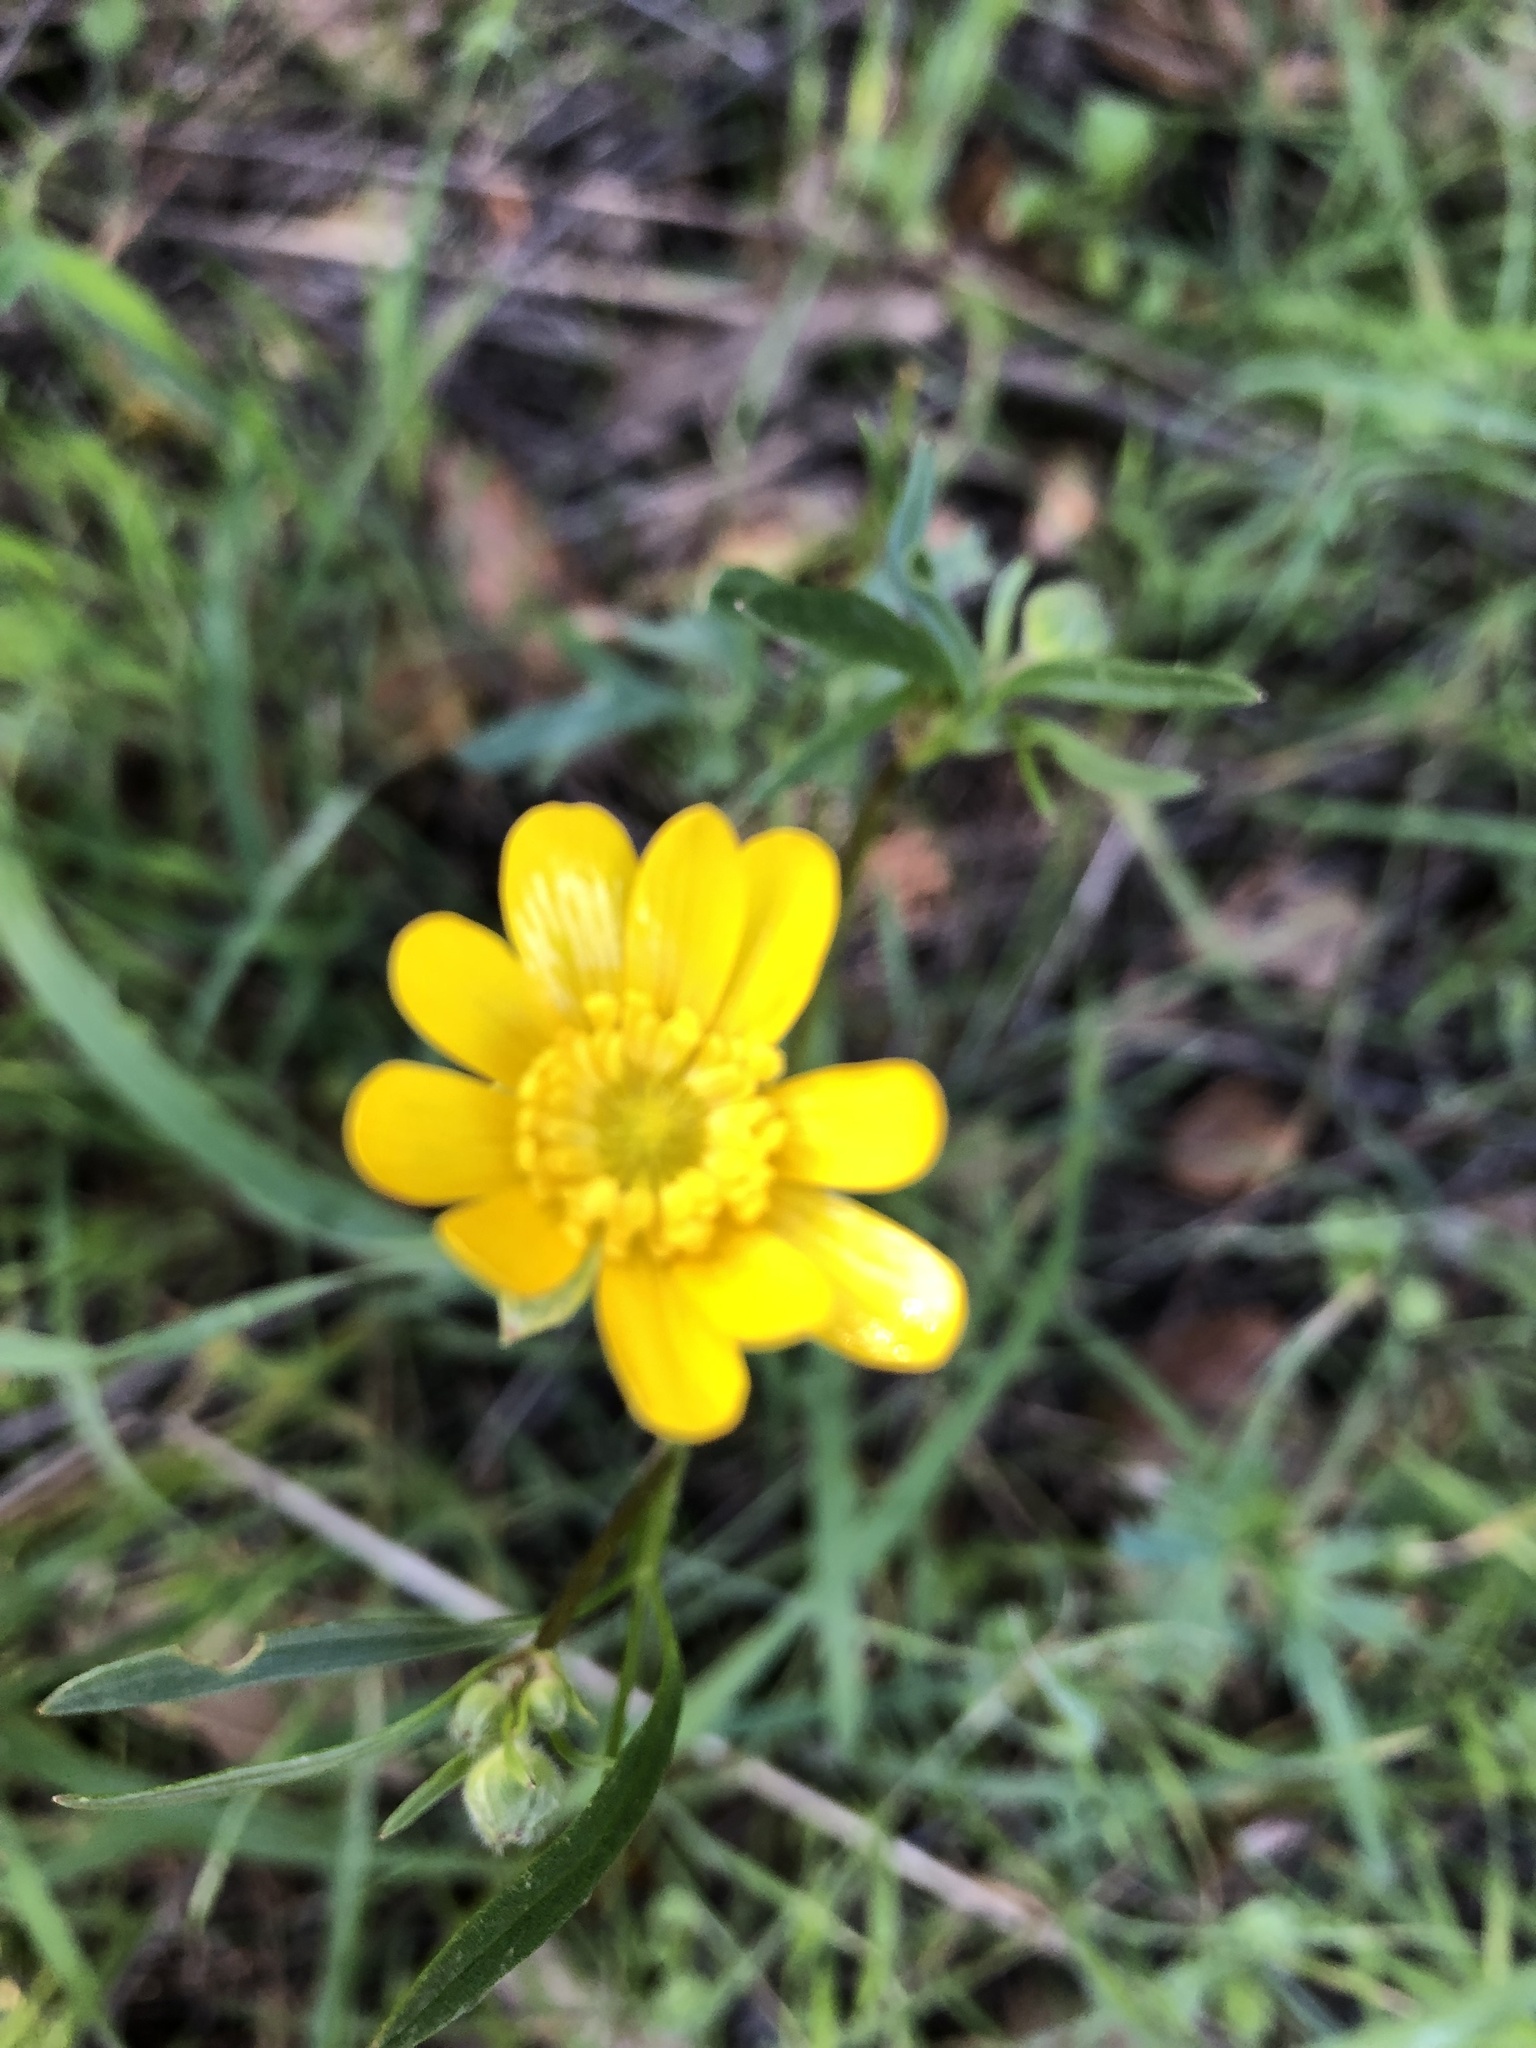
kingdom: Plantae
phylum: Tracheophyta
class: Magnoliopsida
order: Ranunculales
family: Ranunculaceae
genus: Ranunculus
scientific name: Ranunculus californicus
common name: California buttercup
